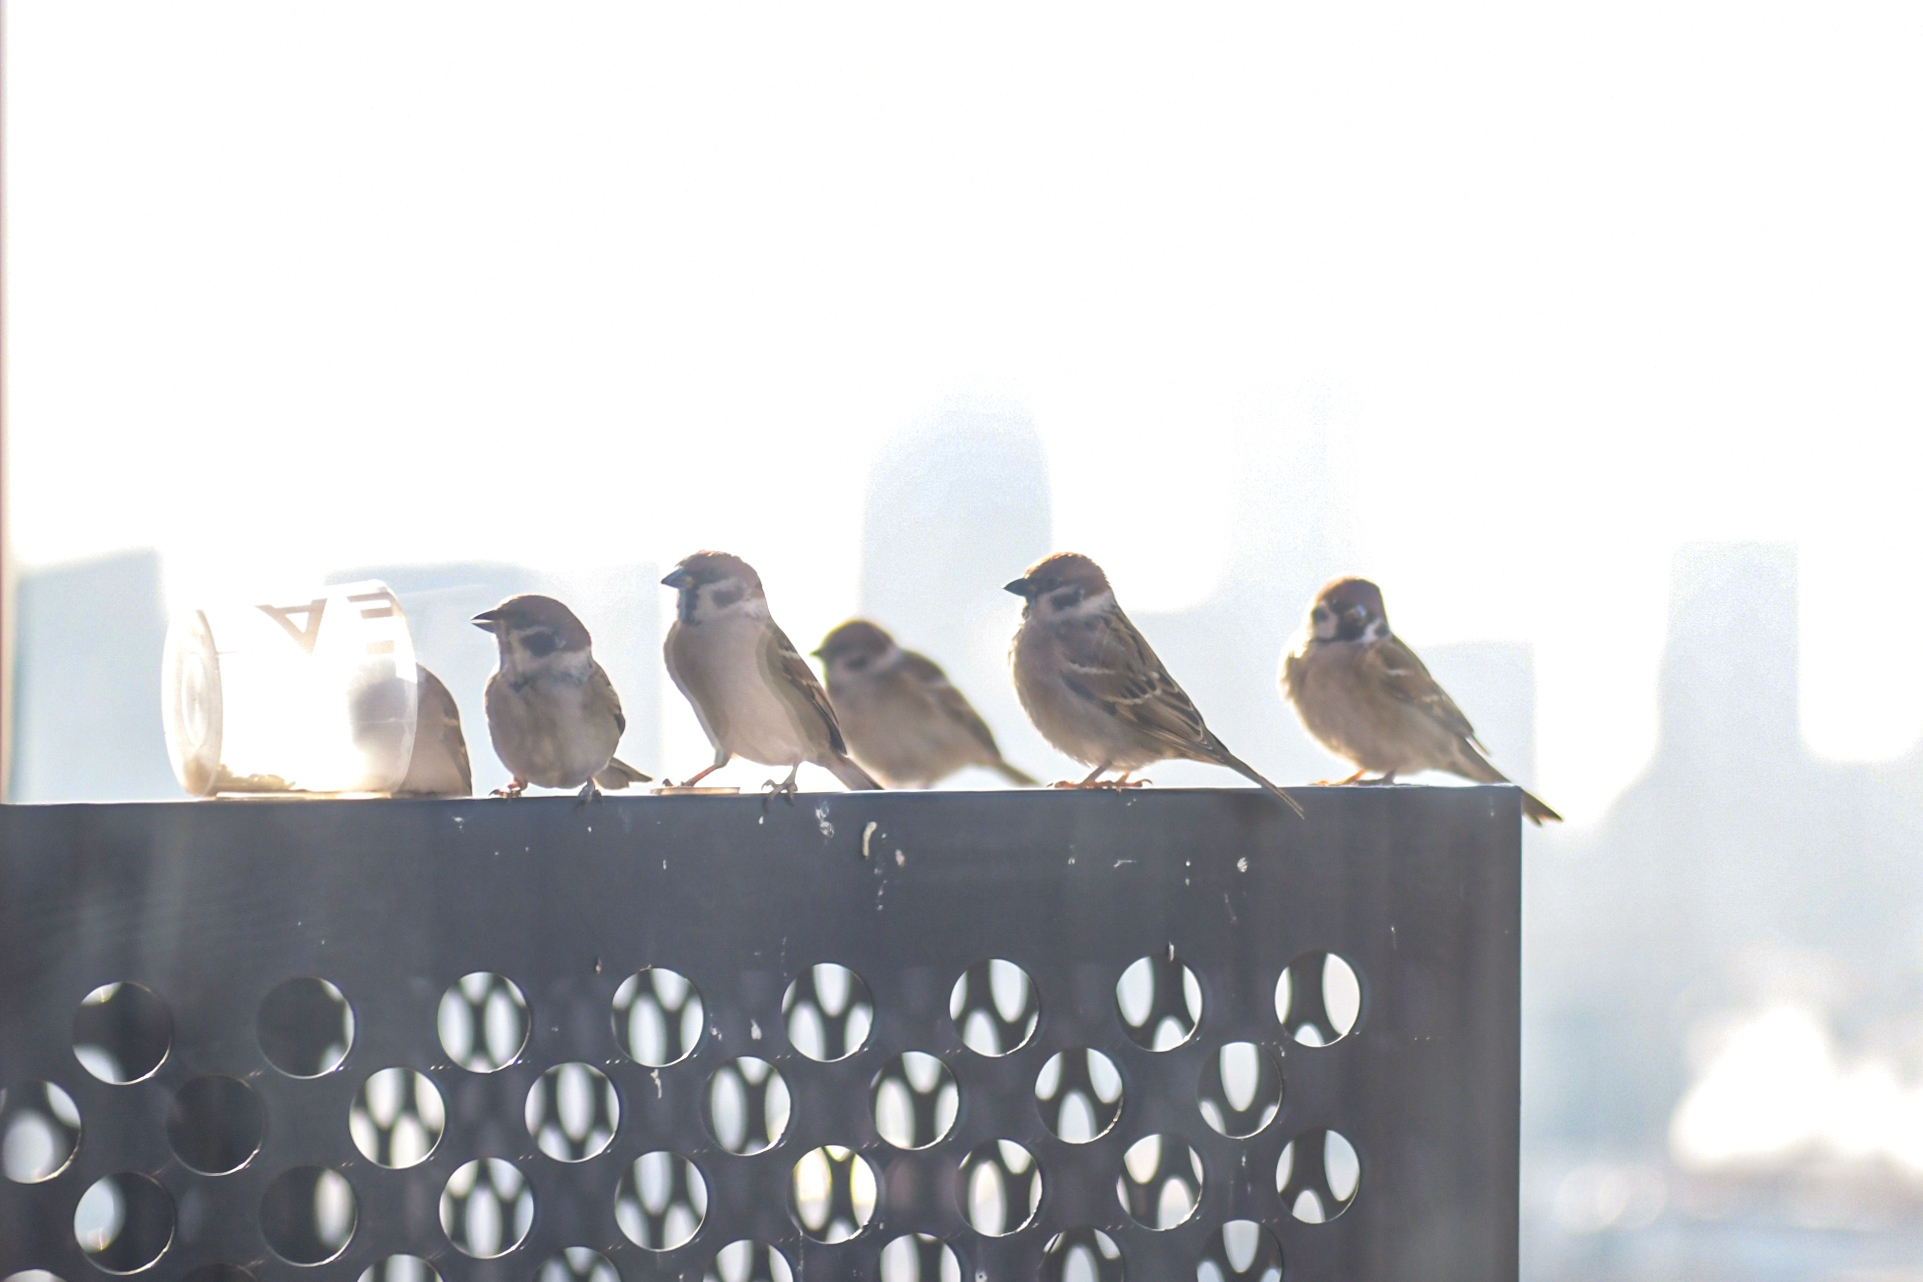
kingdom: Animalia
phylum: Chordata
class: Aves
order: Passeriformes
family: Passeridae
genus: Passer
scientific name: Passer montanus
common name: Eurasian tree sparrow
